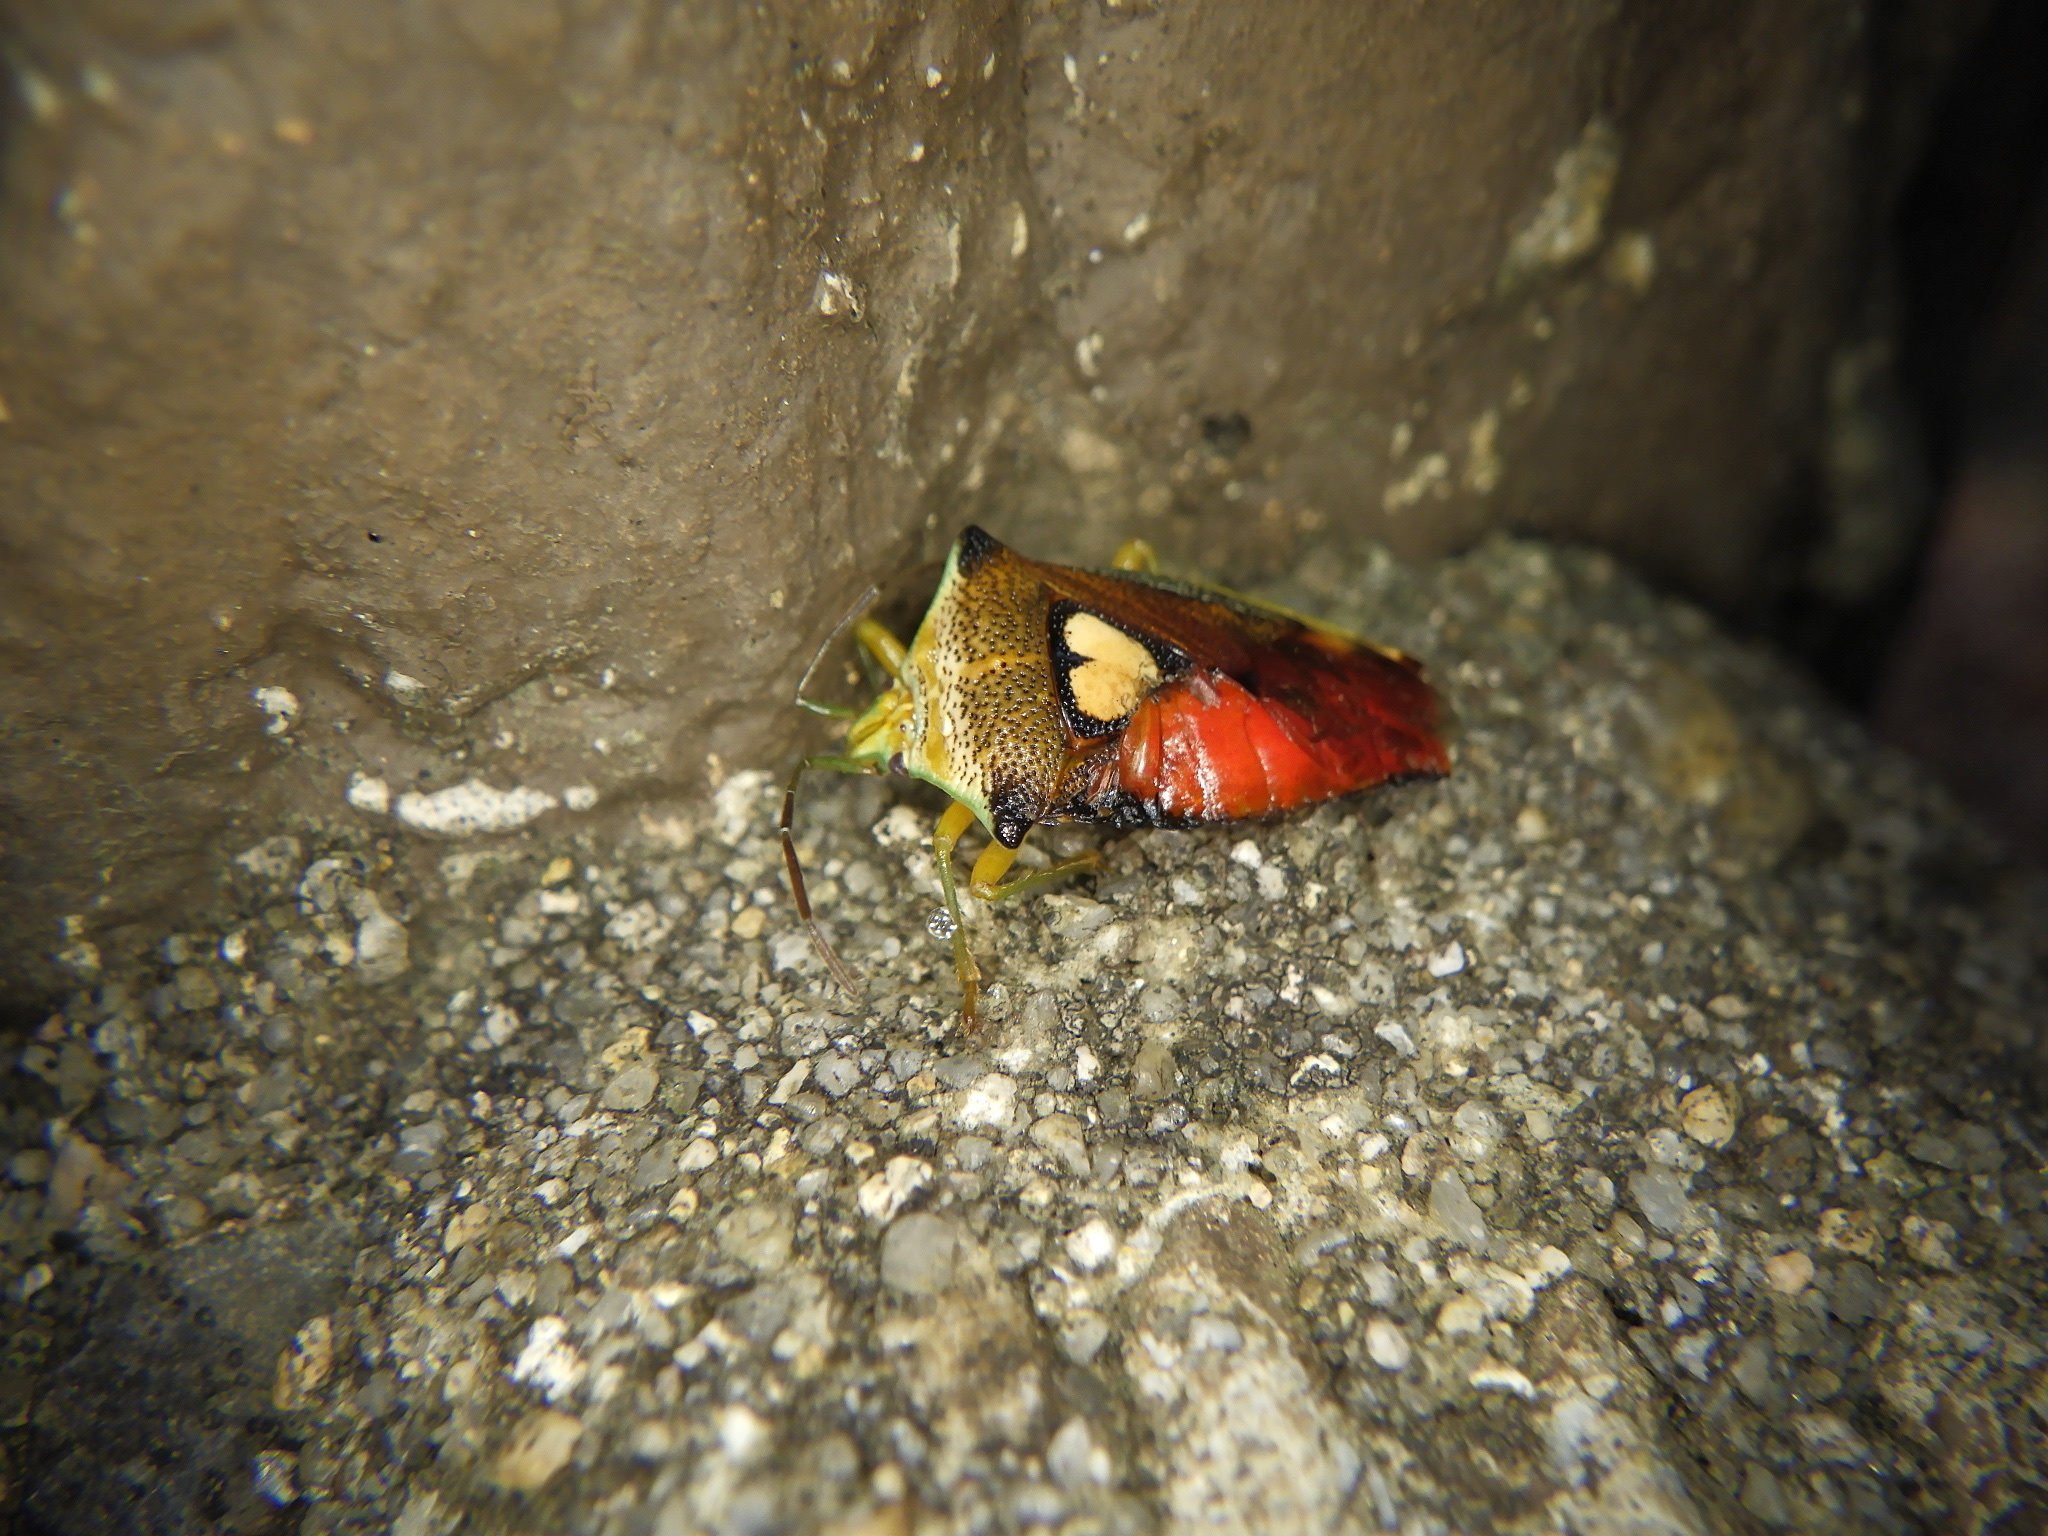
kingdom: Animalia
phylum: Arthropoda
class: Insecta
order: Hemiptera
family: Acanthosomatidae
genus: Sastragala
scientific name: Sastragala esakii
